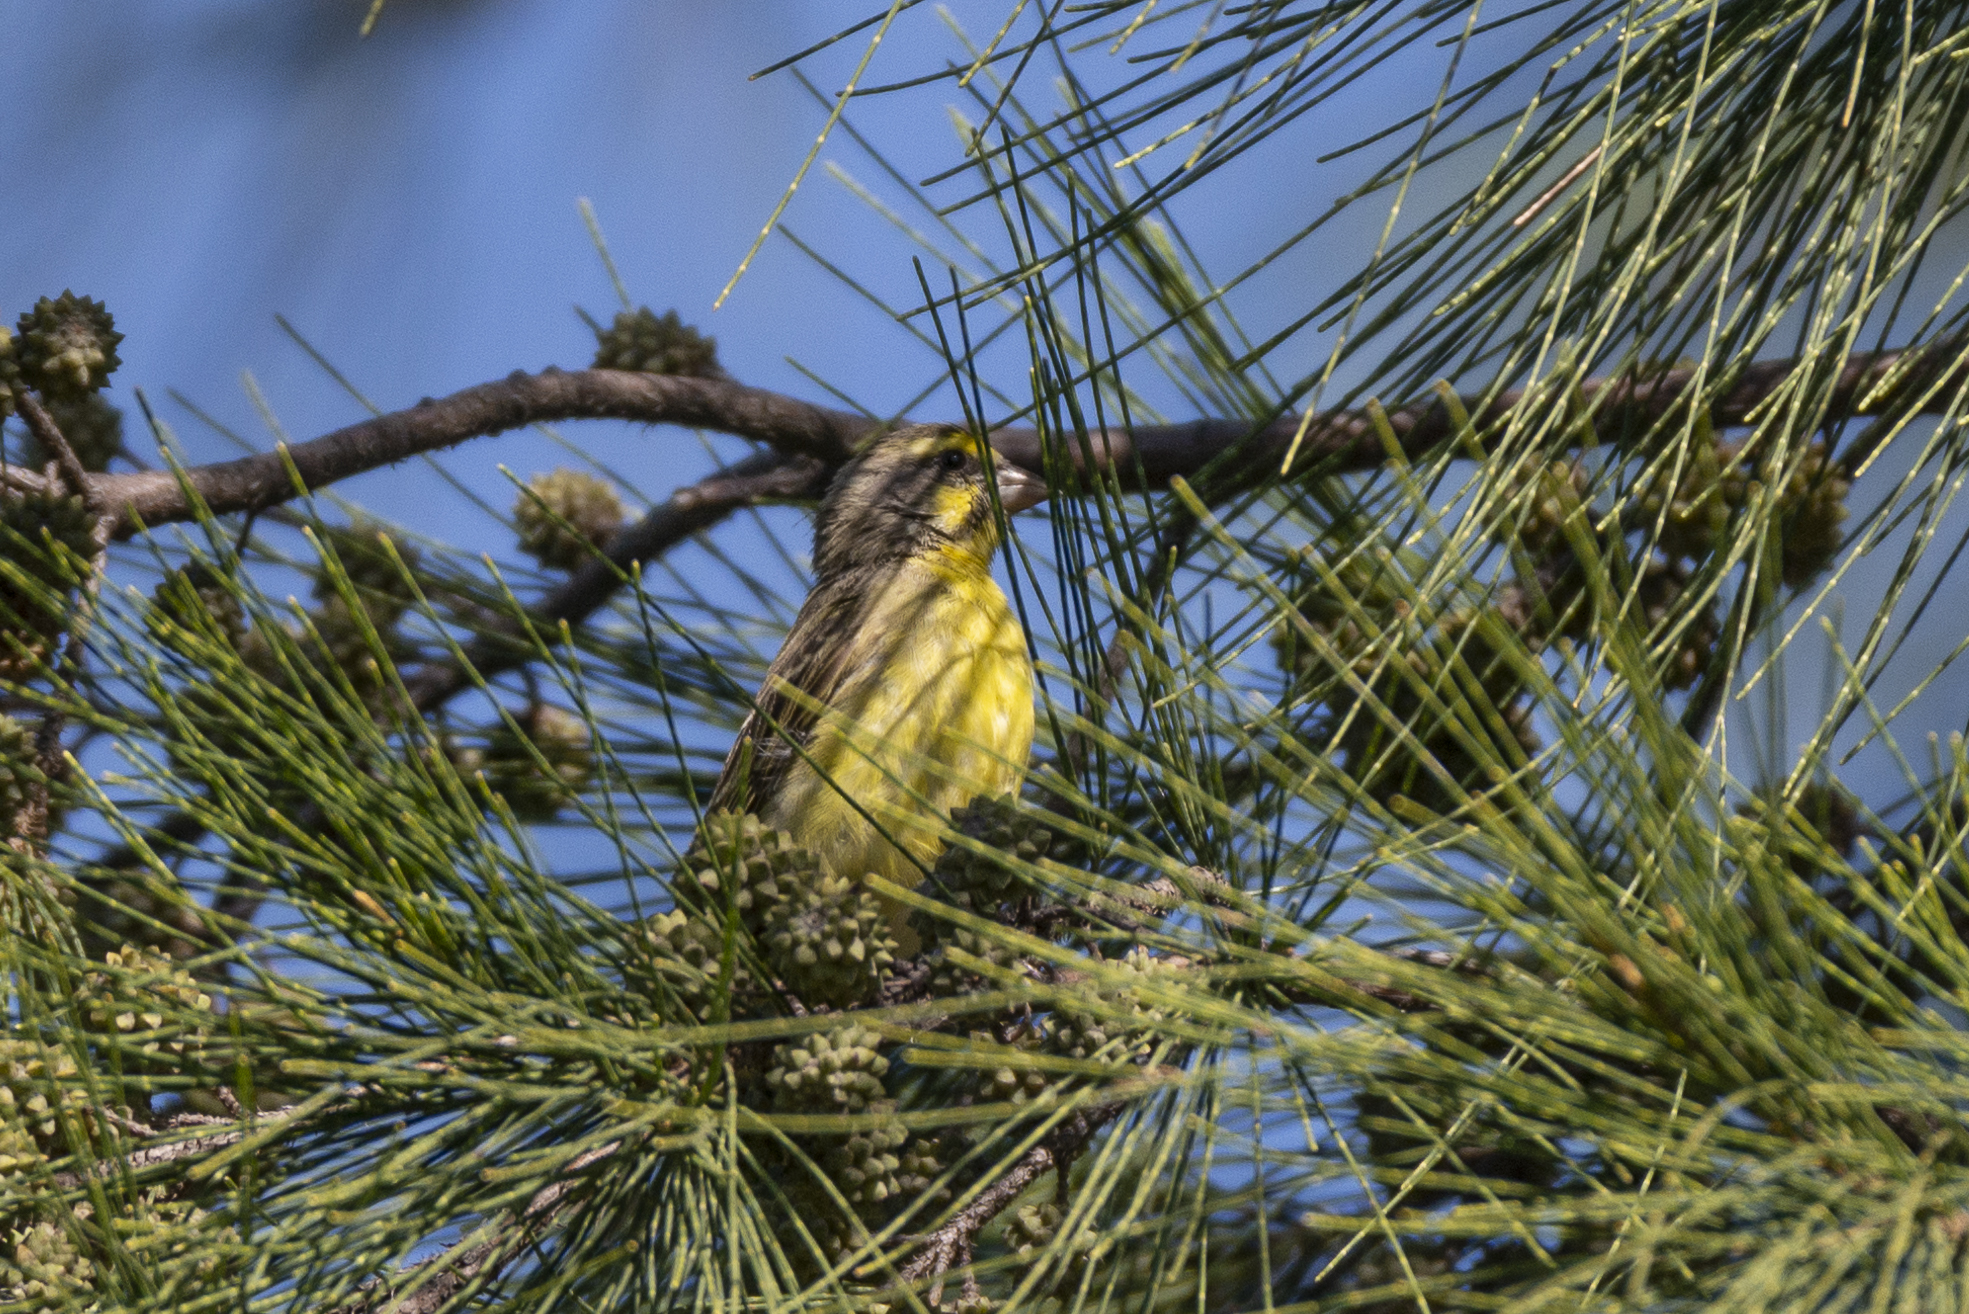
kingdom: Animalia
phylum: Chordata
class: Aves
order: Passeriformes
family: Fringillidae
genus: Crithagra
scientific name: Crithagra mozambica
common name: Yellow-fronted canary
